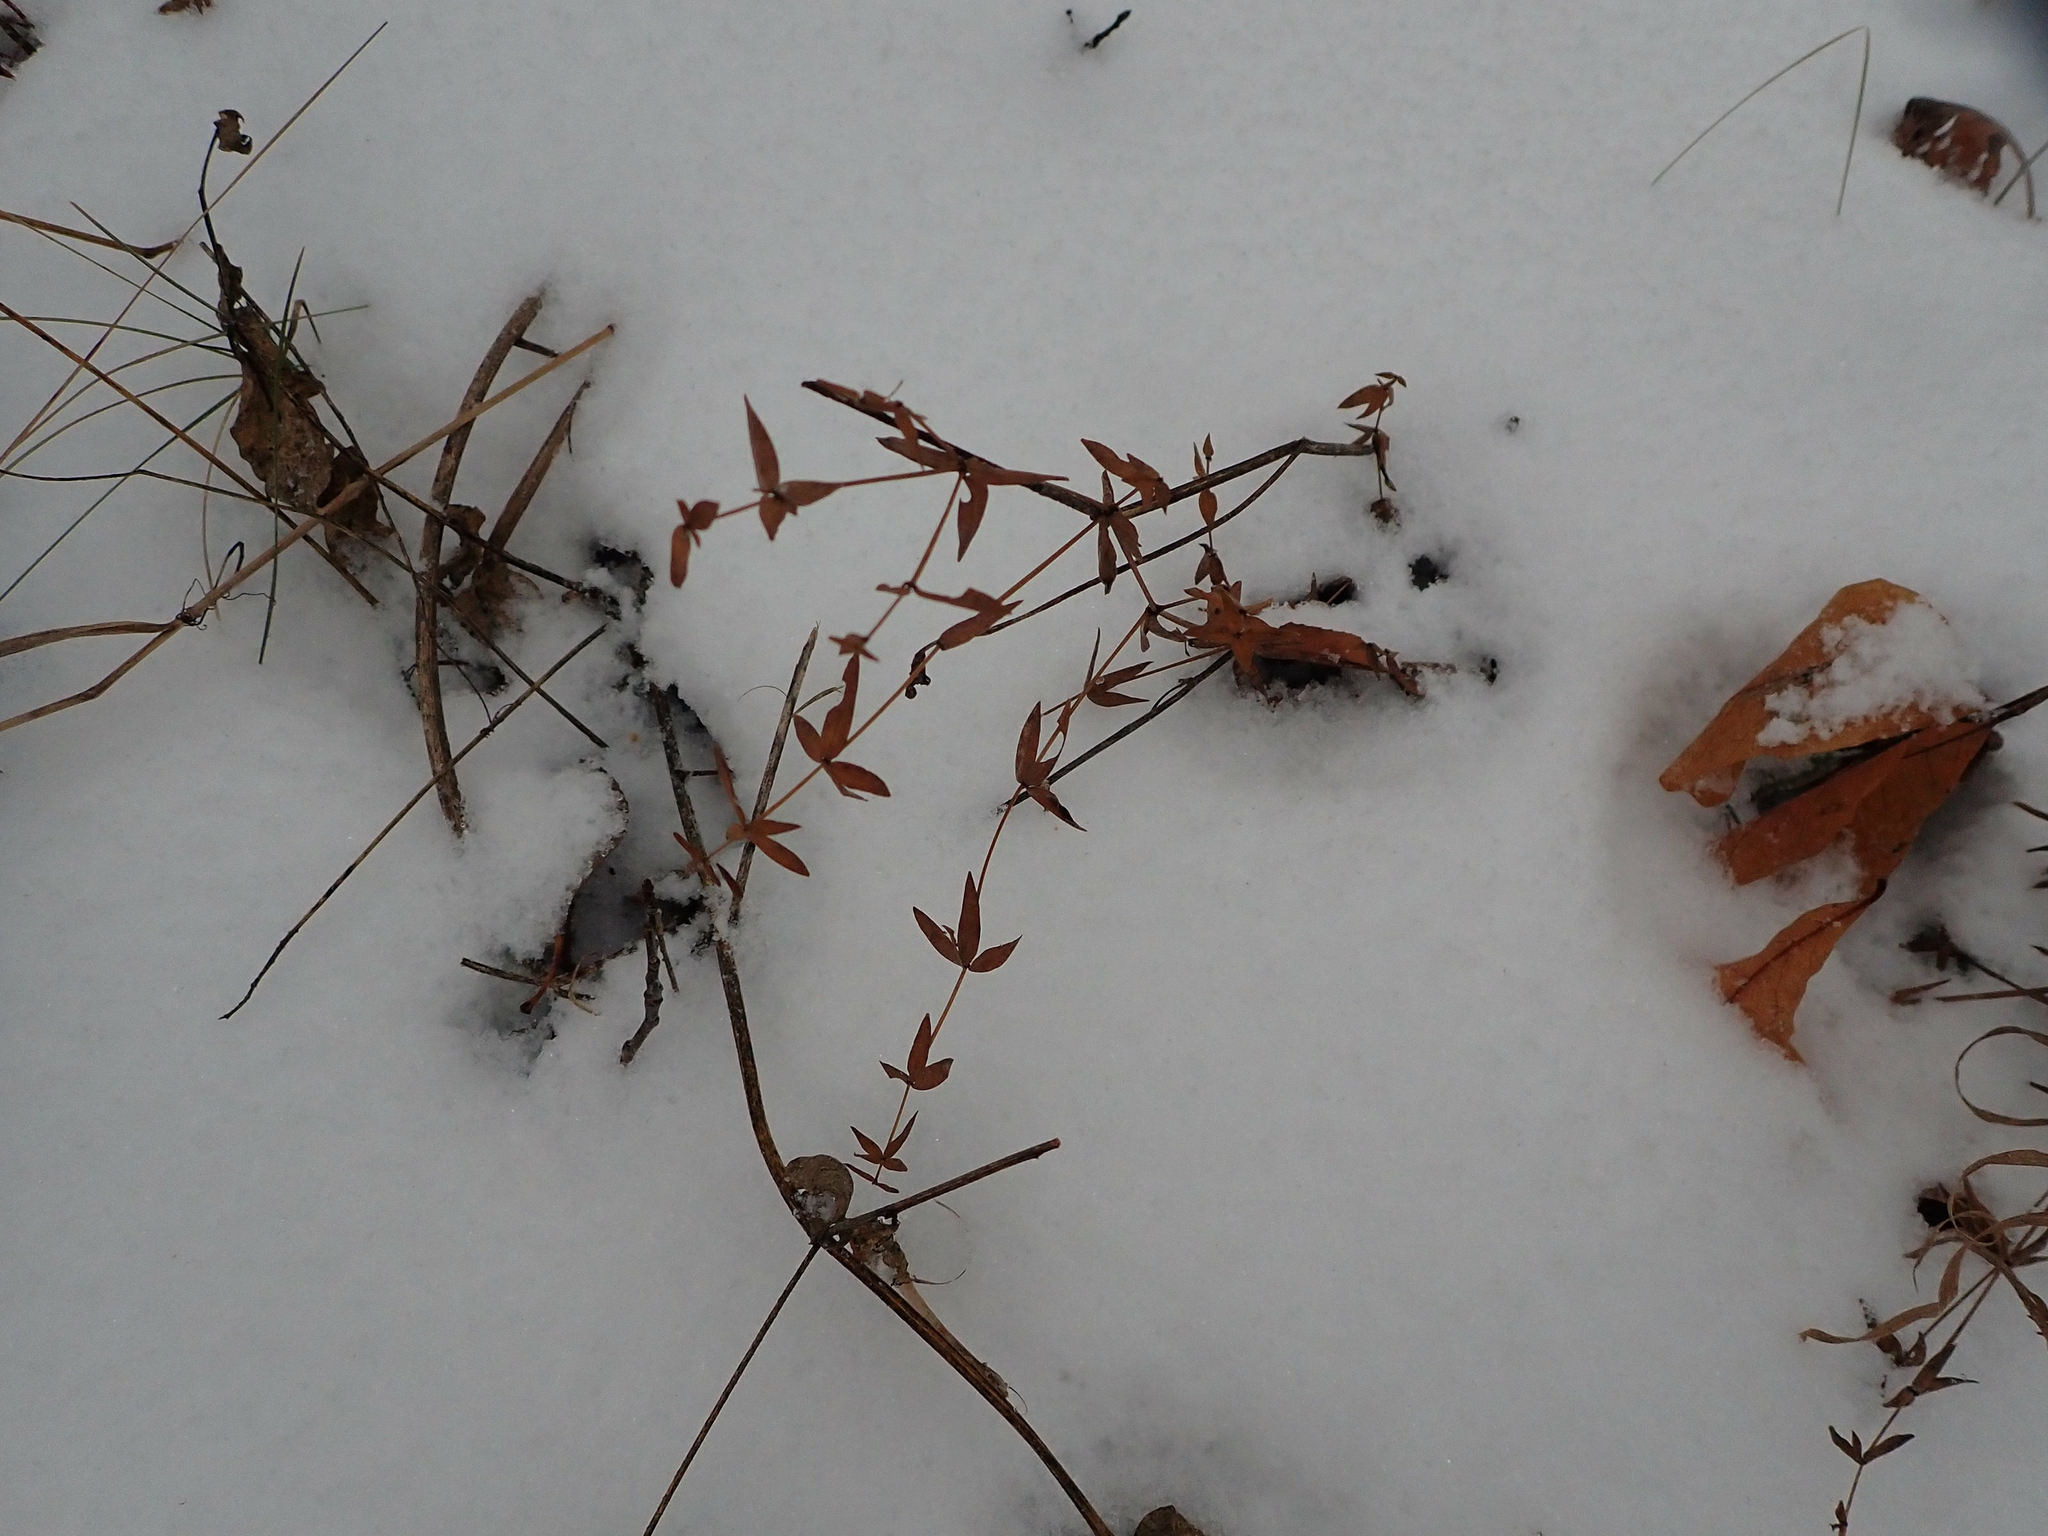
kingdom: Plantae
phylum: Tracheophyta
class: Magnoliopsida
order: Gentianales
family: Rubiaceae
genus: Galium
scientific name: Galium boreale
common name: Northern bedstraw
